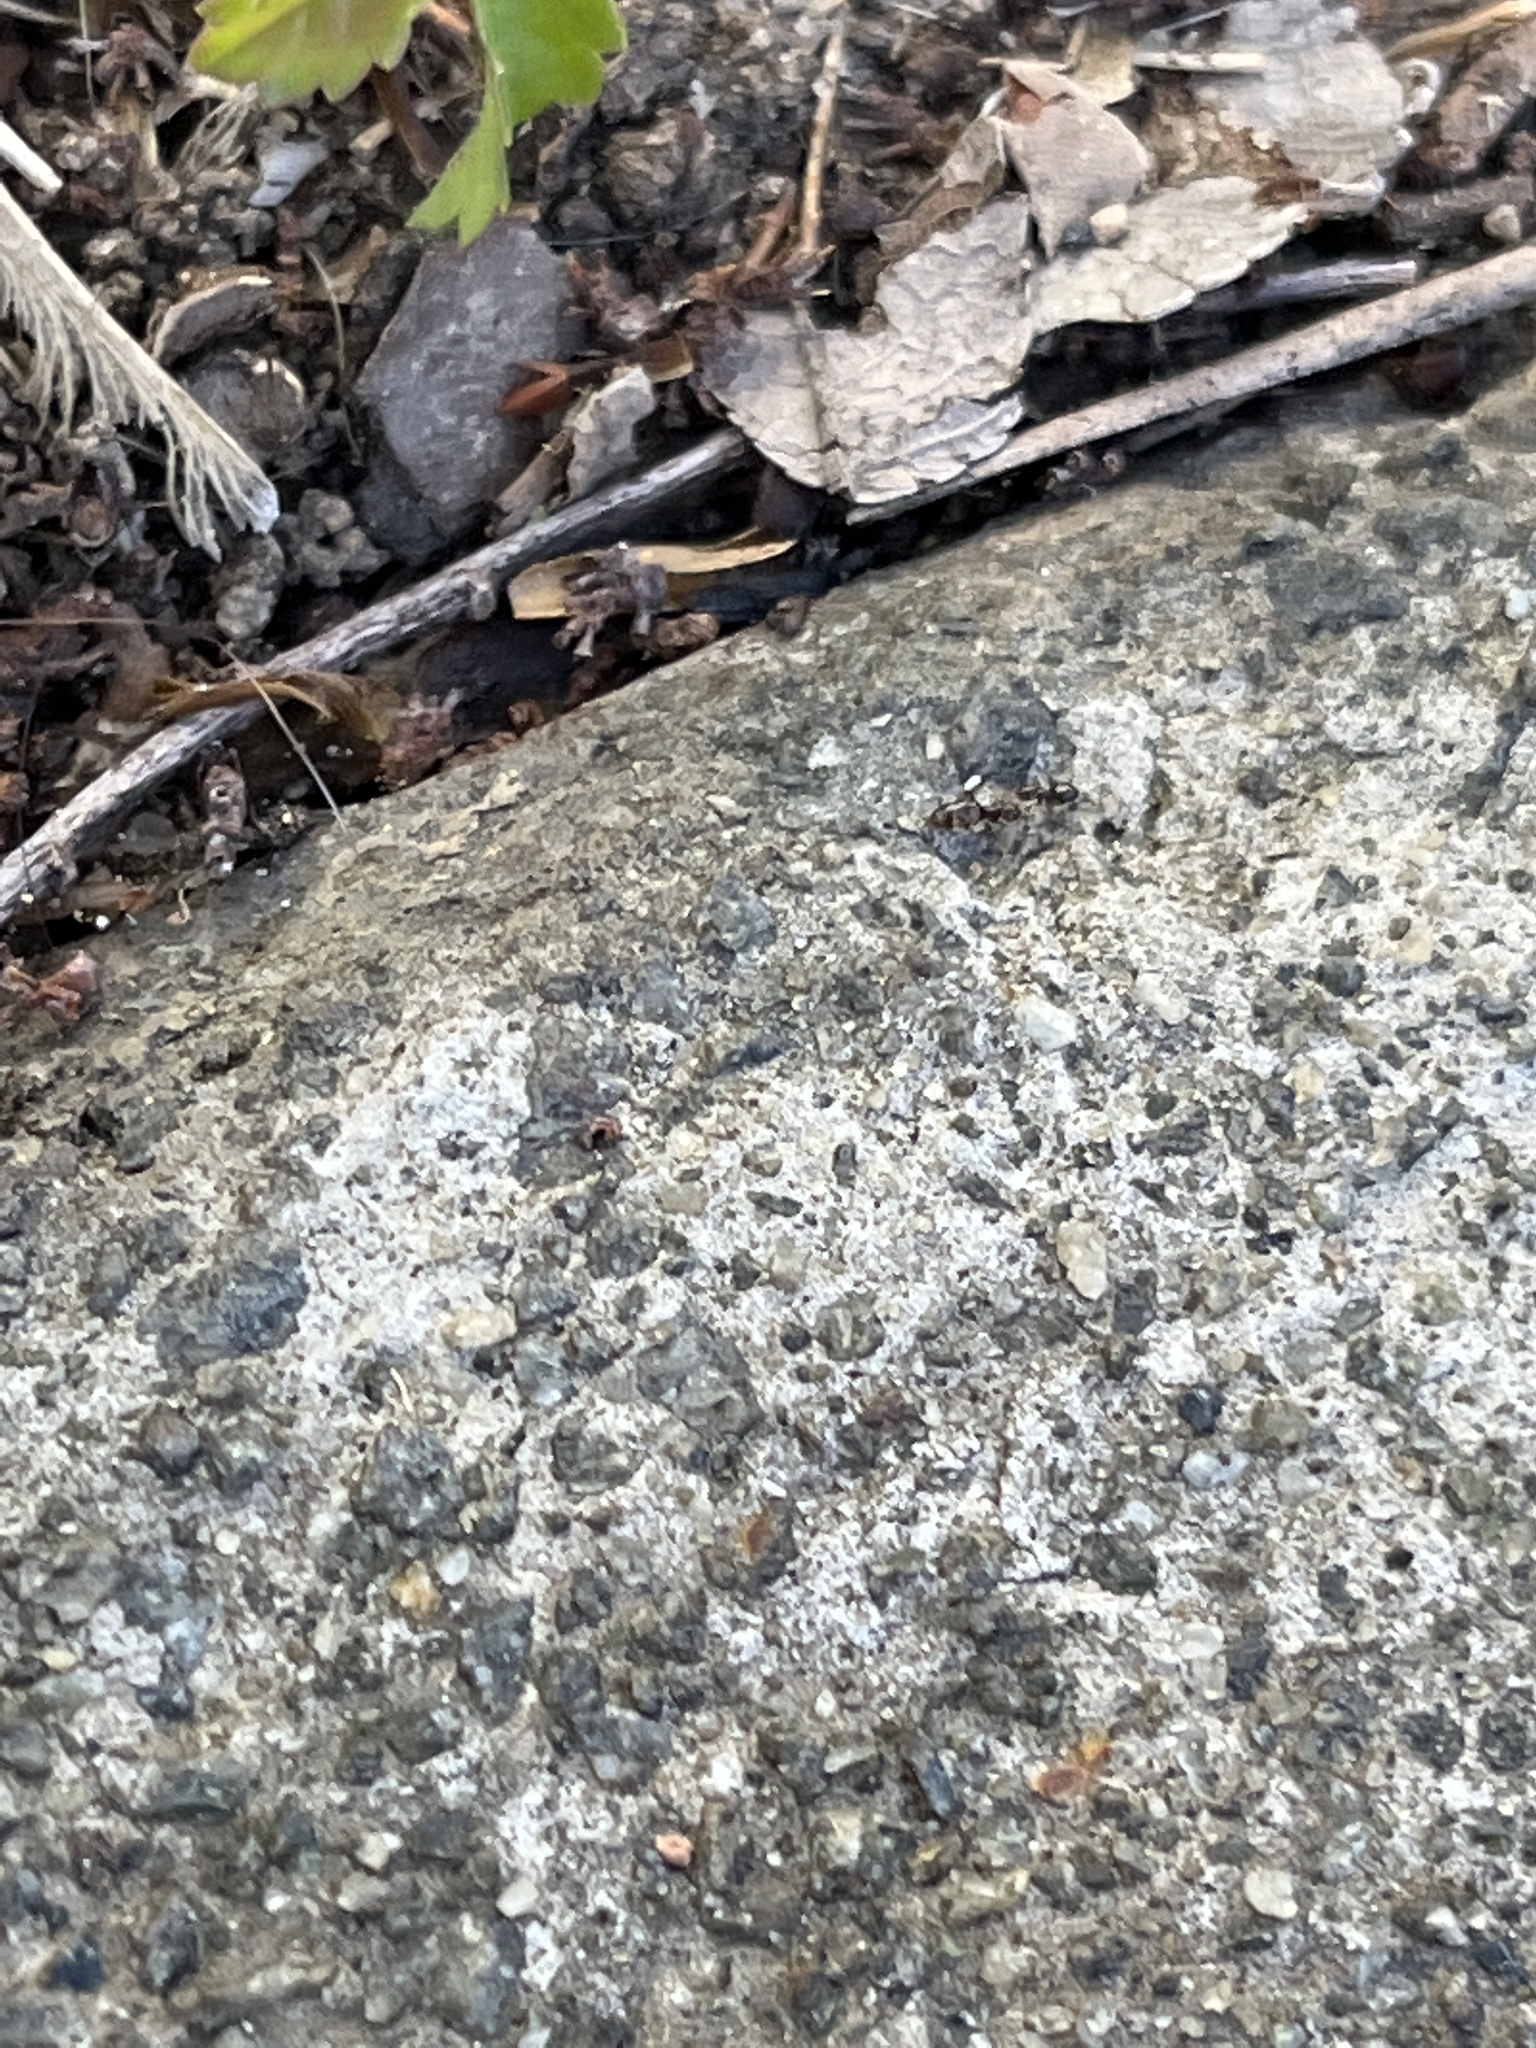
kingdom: Animalia
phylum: Arthropoda
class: Insecta
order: Hymenoptera
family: Formicidae
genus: Brachymyrmex
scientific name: Brachymyrmex patagonicus
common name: Dark rover ant
